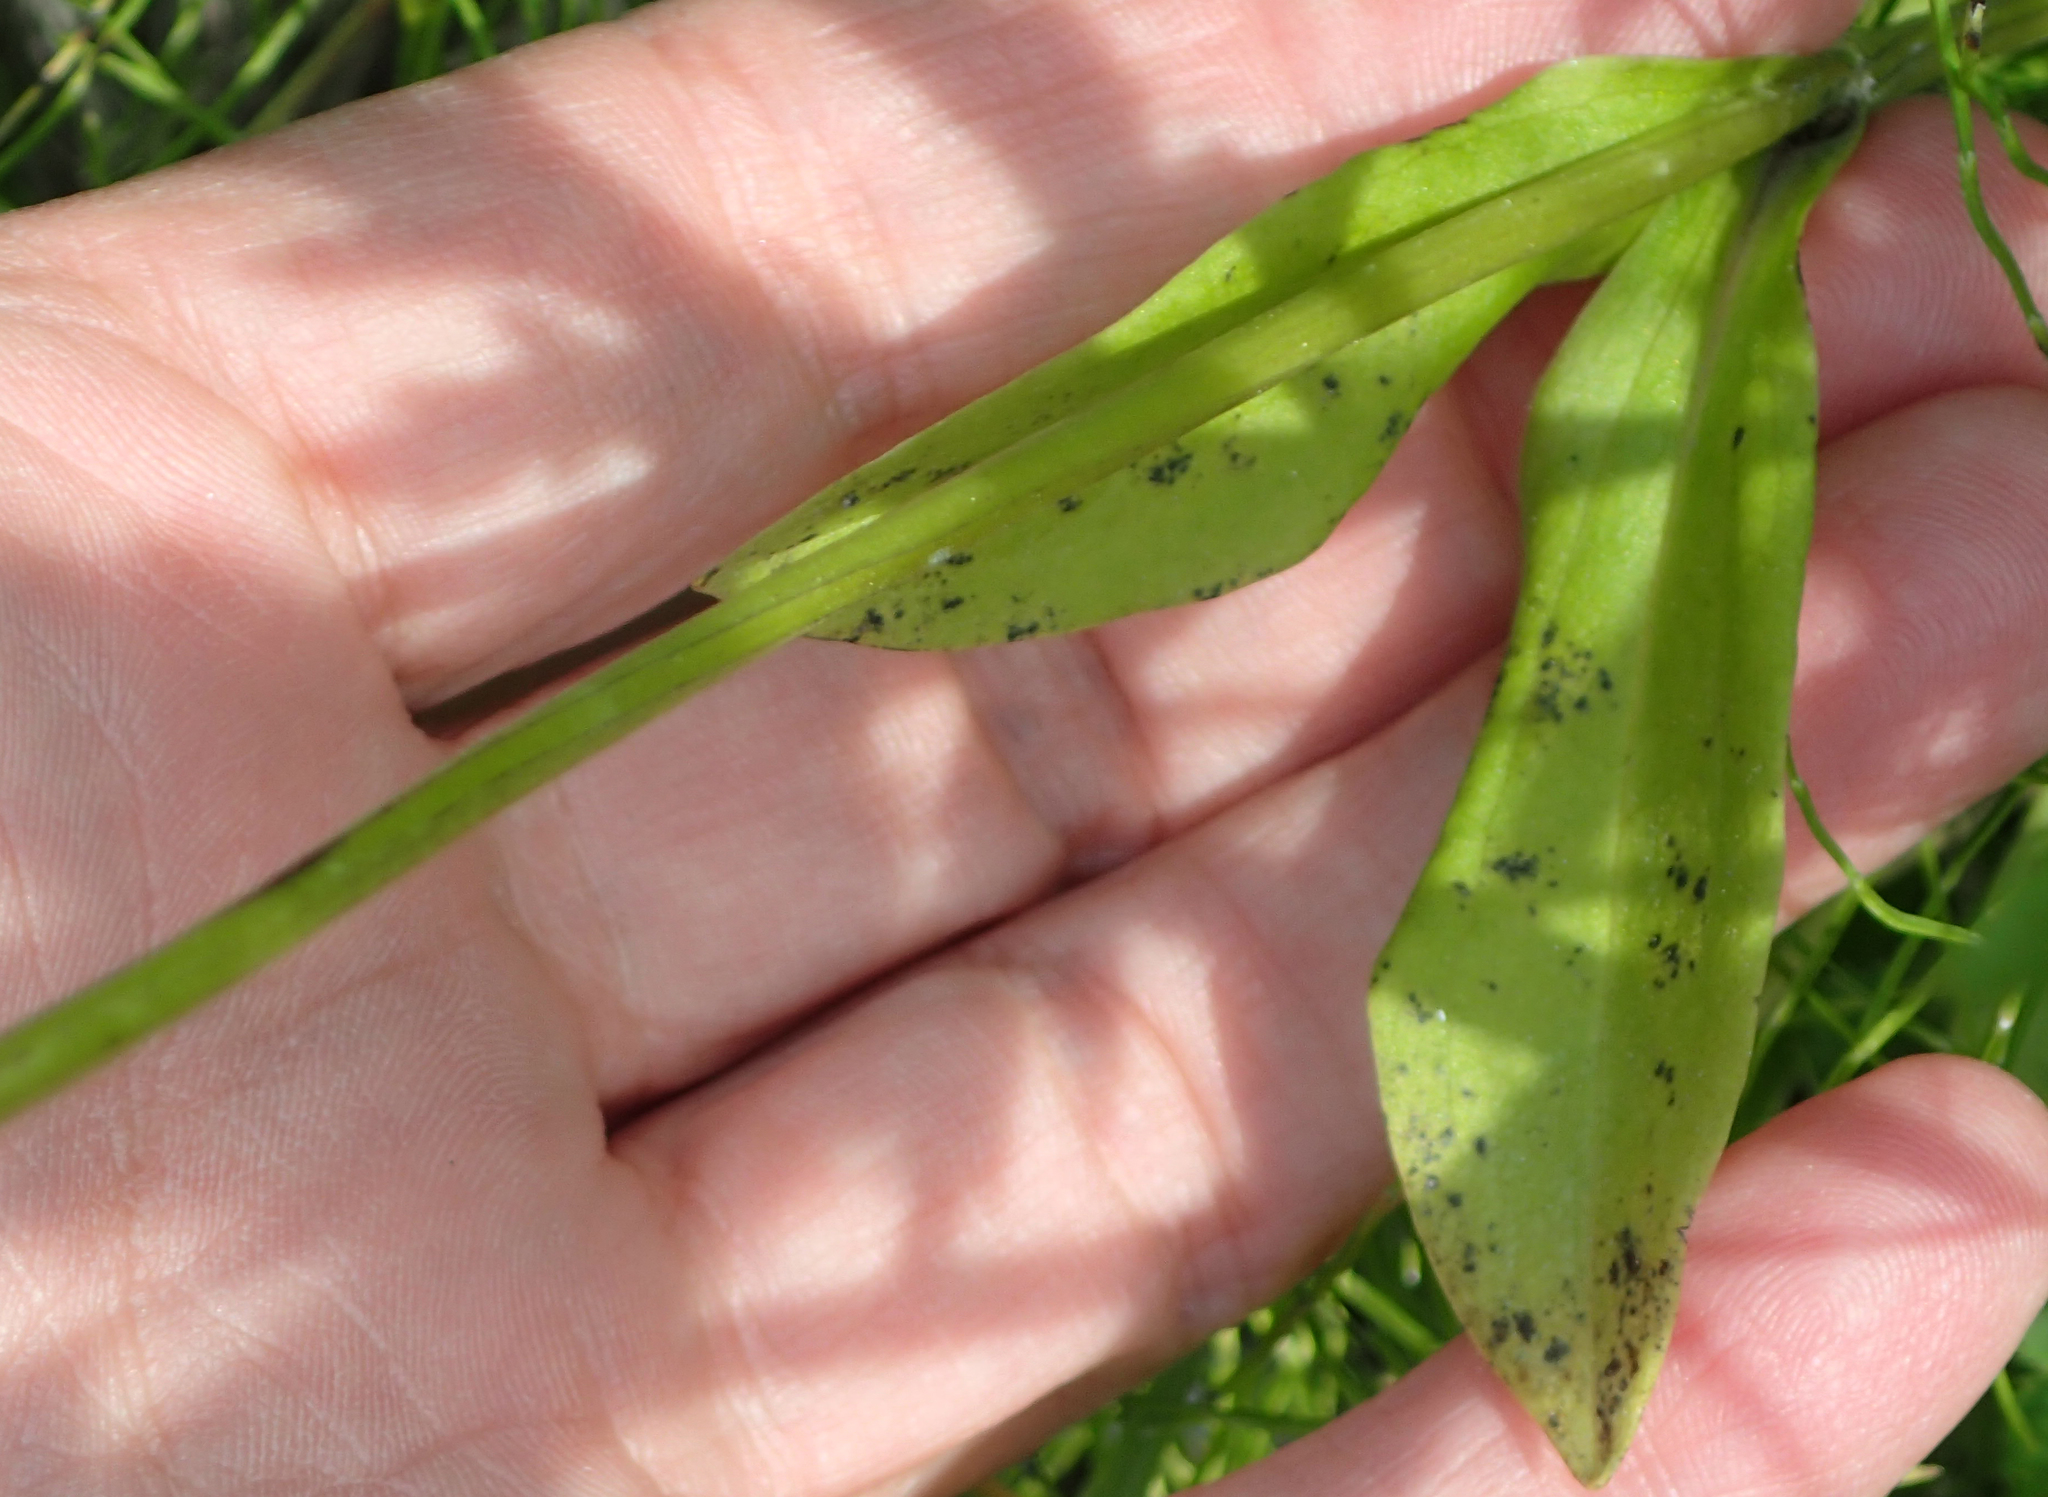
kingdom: Plantae
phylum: Tracheophyta
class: Magnoliopsida
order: Gentianales
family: Gentianaceae
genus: Swertia
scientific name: Swertia perennis
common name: Alpine bog swertia
